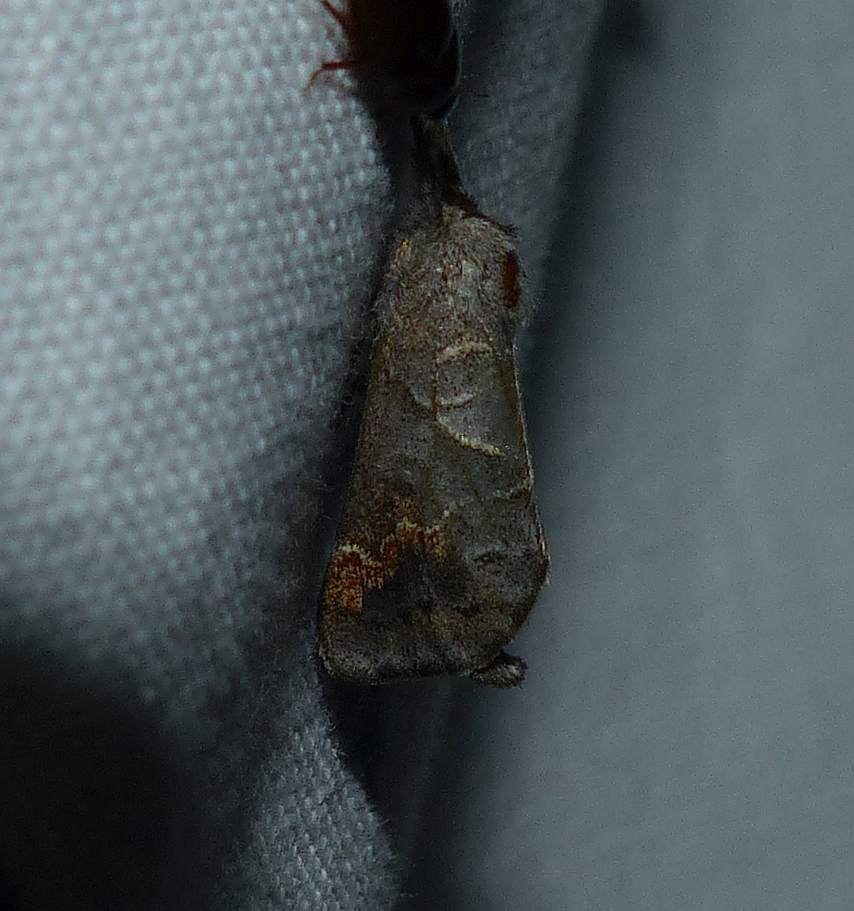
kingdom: Animalia
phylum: Arthropoda
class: Insecta
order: Lepidoptera
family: Notodontidae
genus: Clostera
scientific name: Clostera apicalis
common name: Apical prominent
